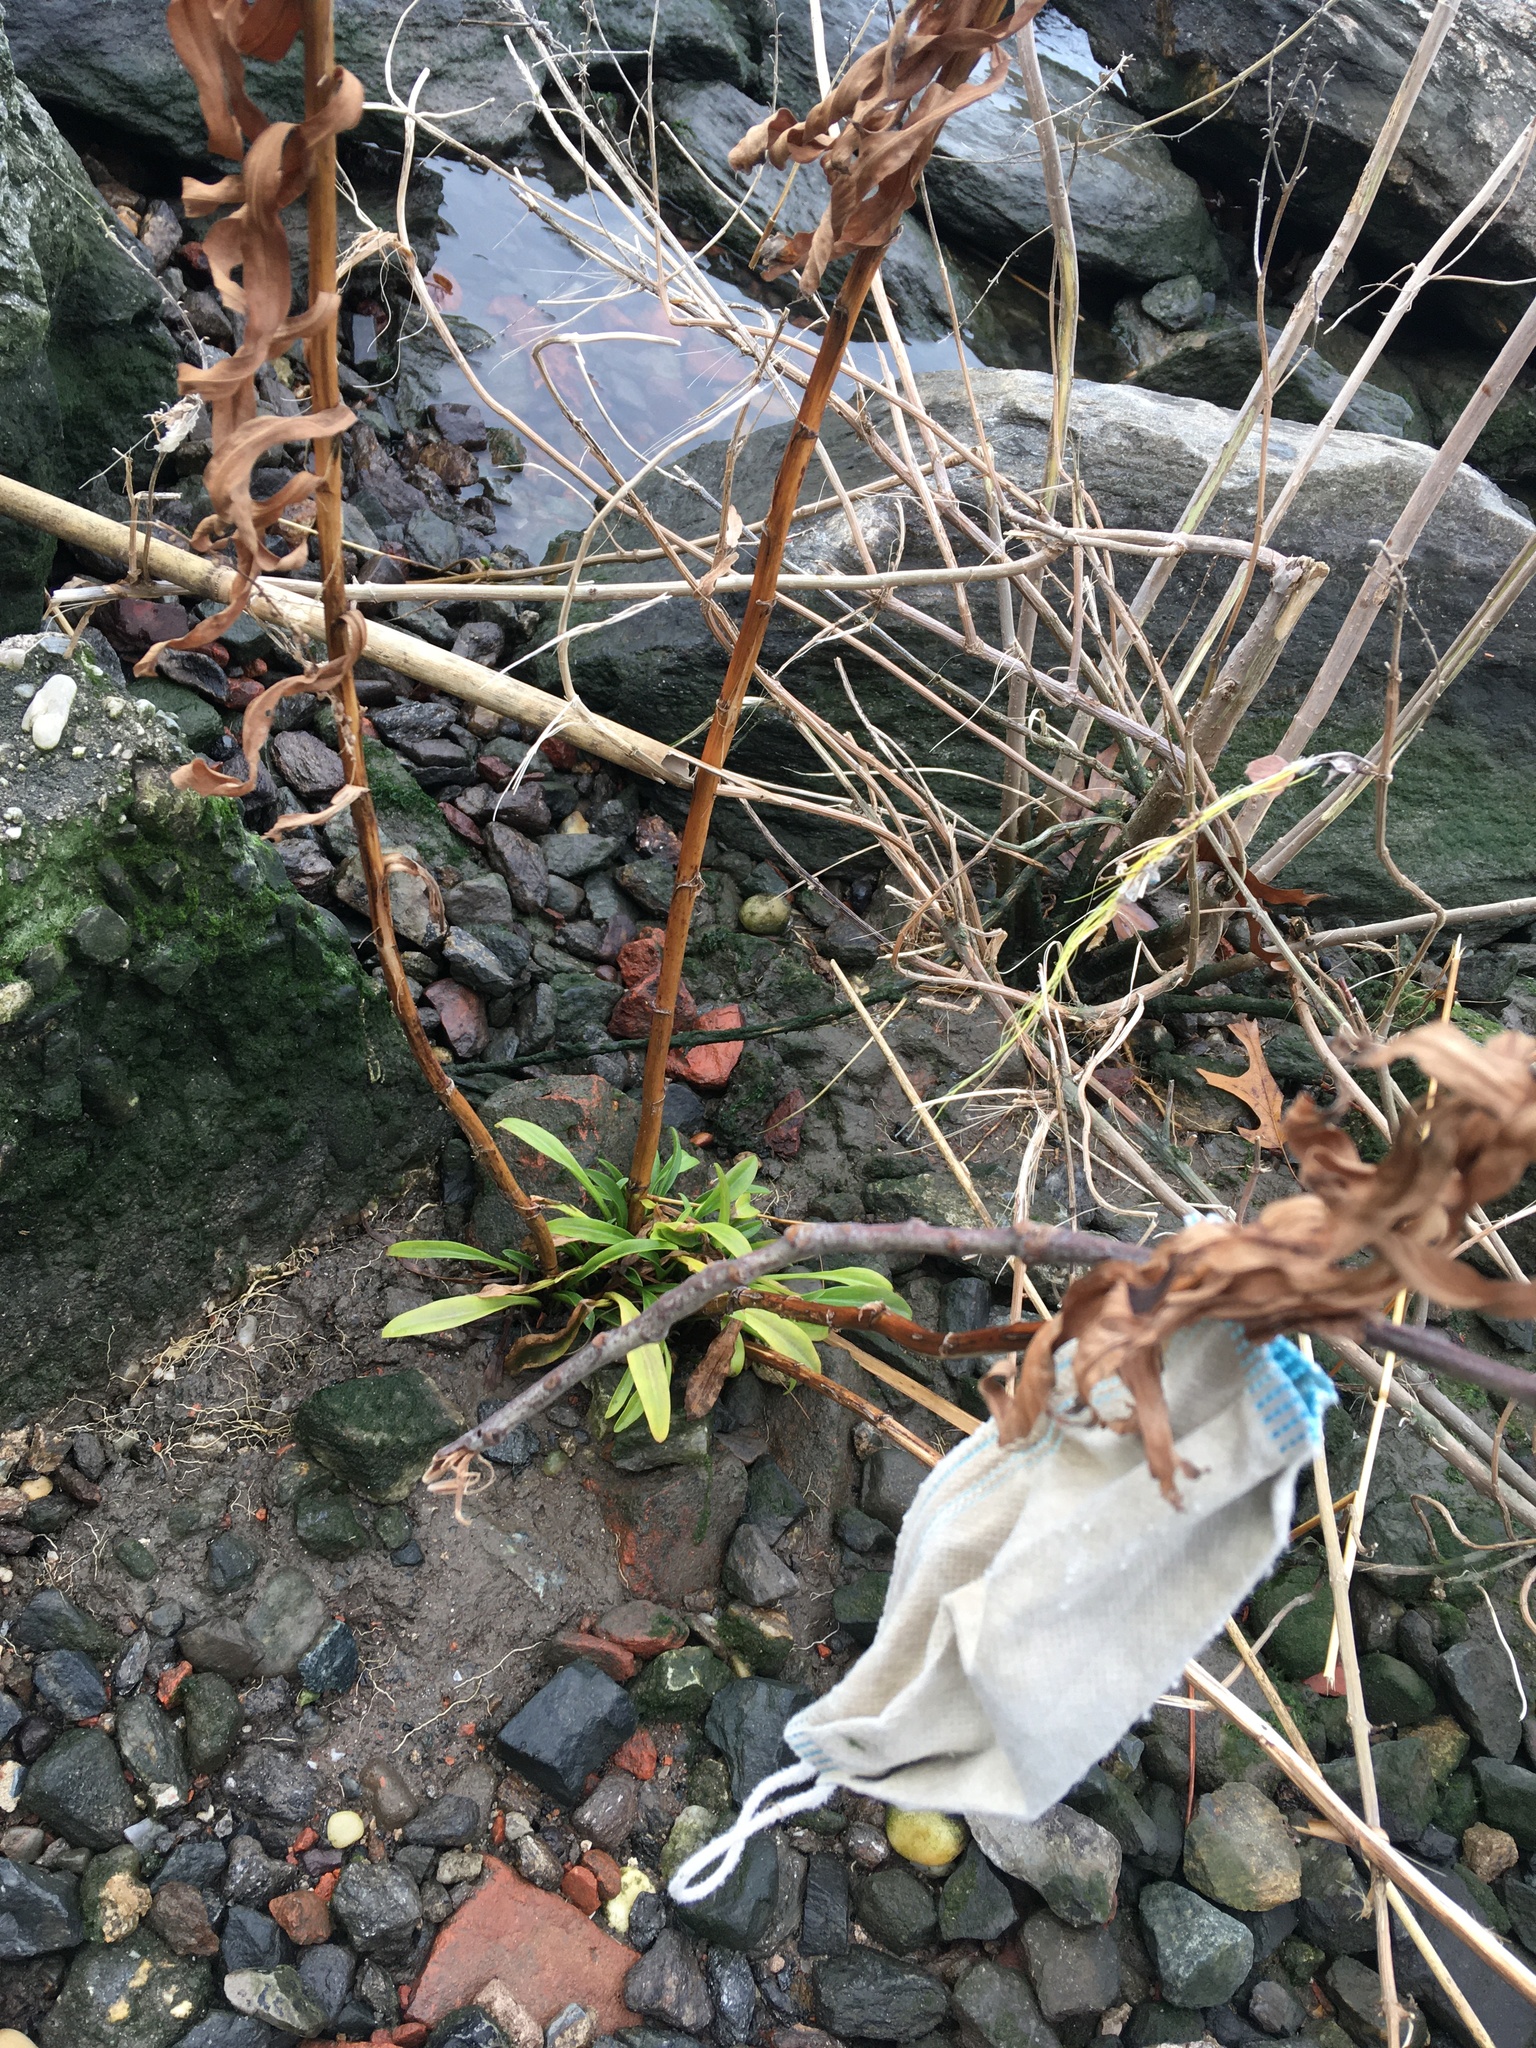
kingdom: Plantae
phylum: Tracheophyta
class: Magnoliopsida
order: Asterales
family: Asteraceae
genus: Solidago
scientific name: Solidago sempervirens
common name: Salt-marsh goldenrod
